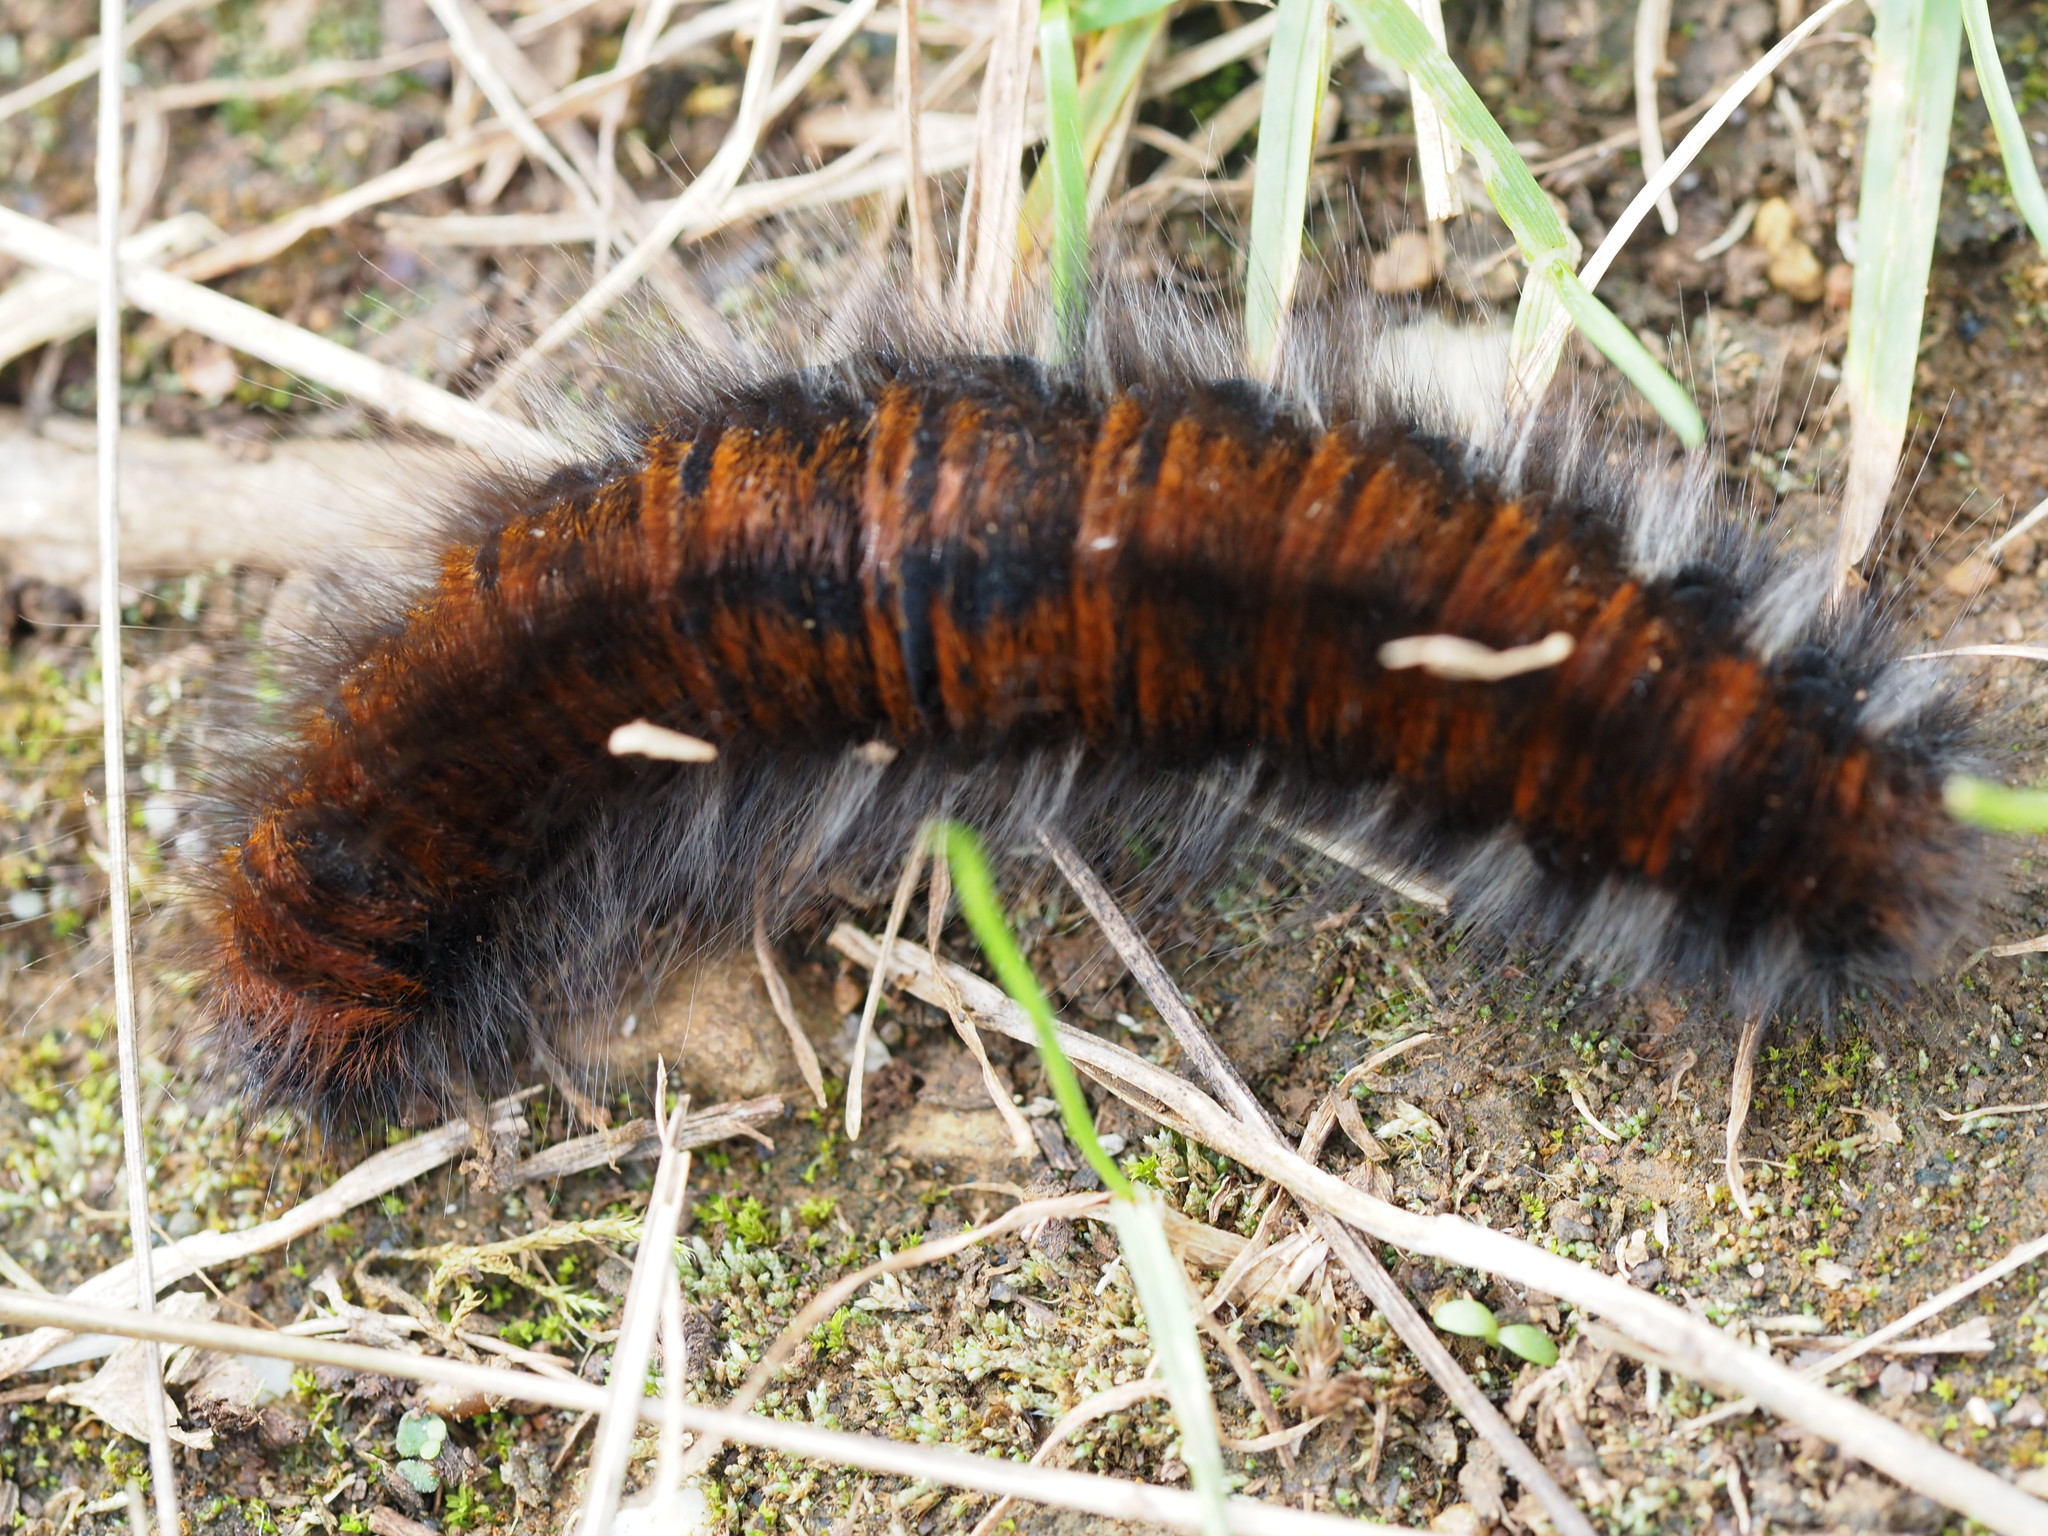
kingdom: Animalia
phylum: Arthropoda
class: Insecta
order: Lepidoptera
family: Lasiocampidae
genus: Macrothylacia
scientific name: Macrothylacia rubi
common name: Fox moth
